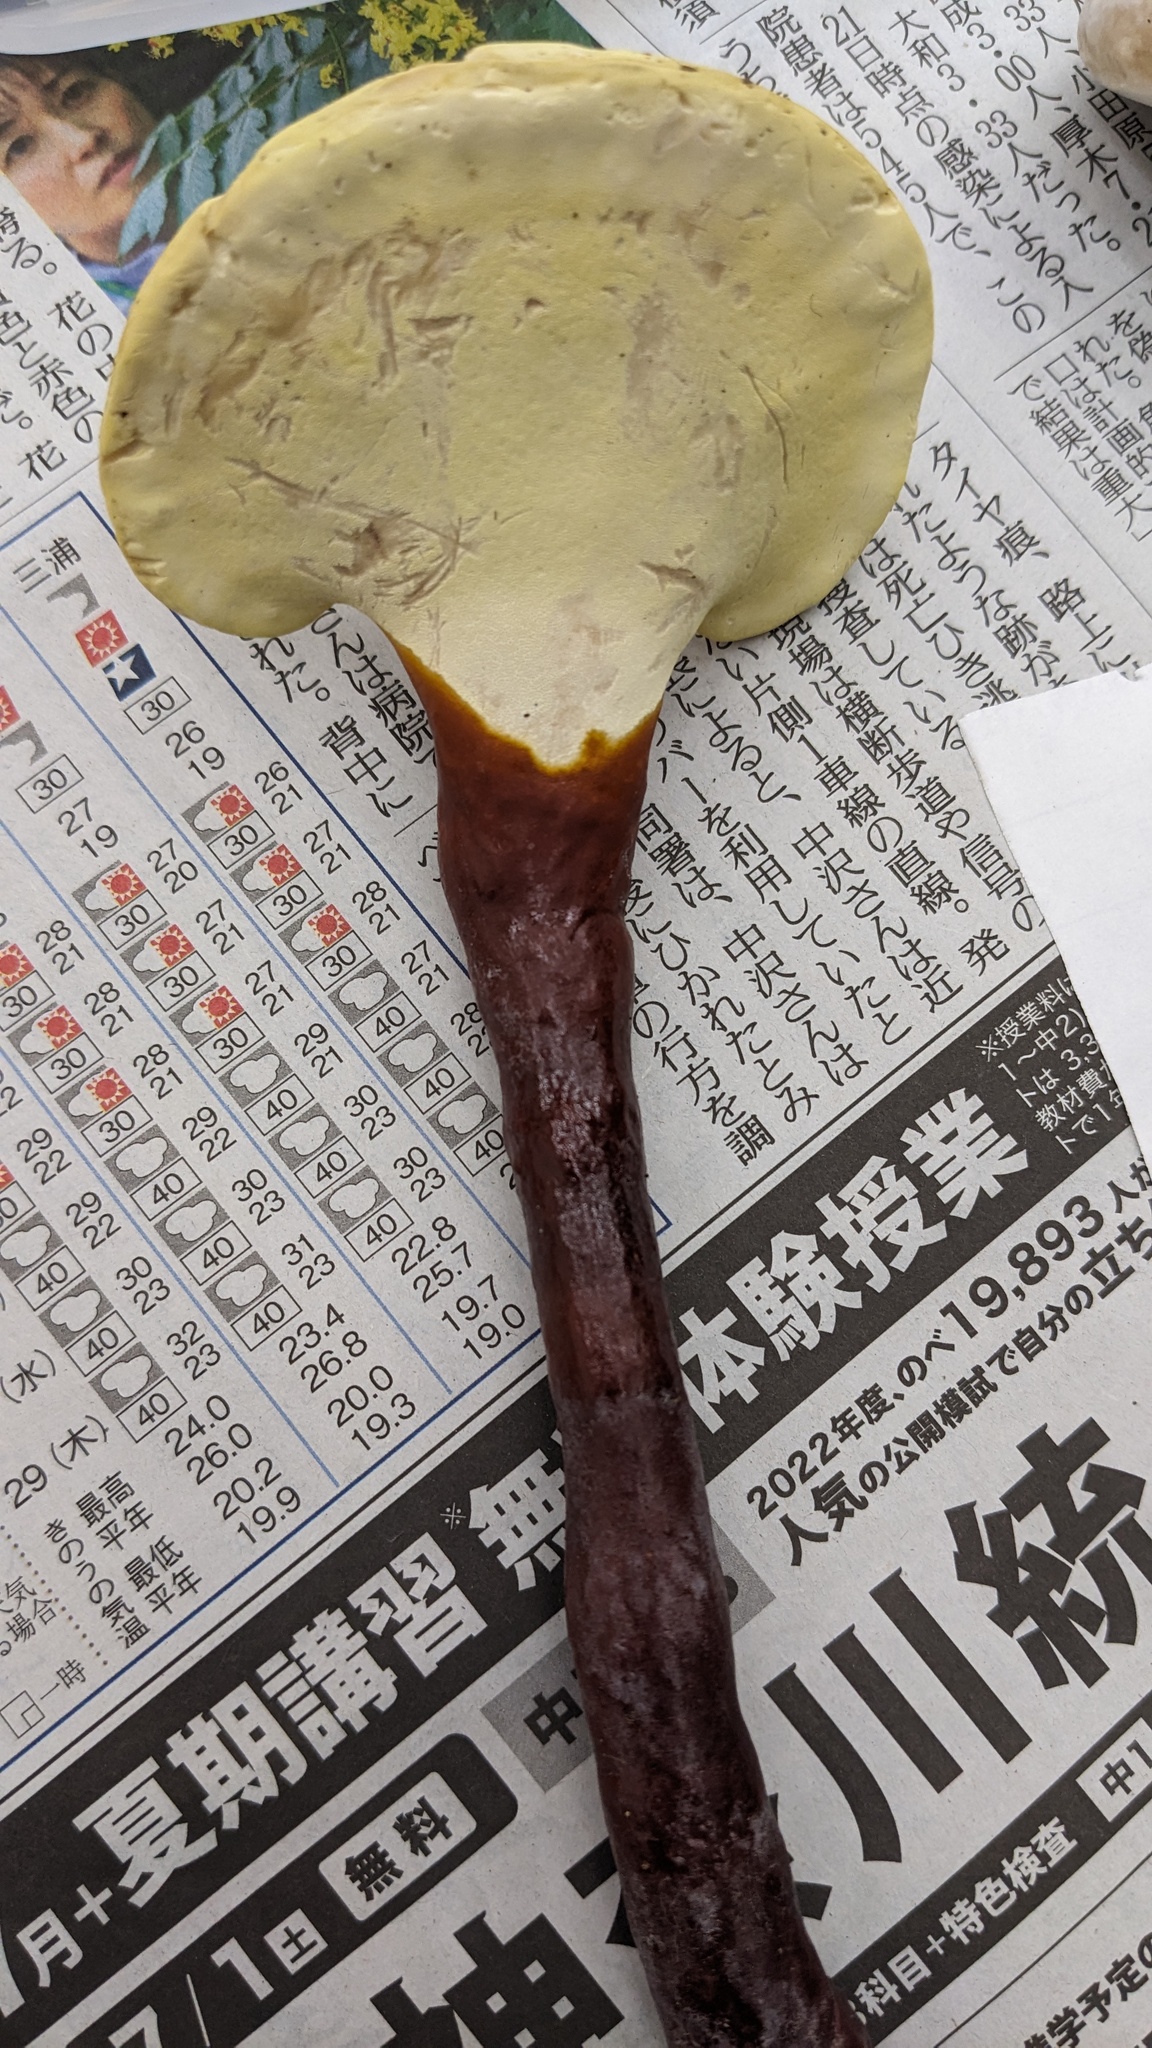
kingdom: Fungi
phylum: Basidiomycota
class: Agaricomycetes
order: Polyporales
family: Polyporaceae
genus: Ganoderma
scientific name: Ganoderma lucidum
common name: Lacquered bracket
